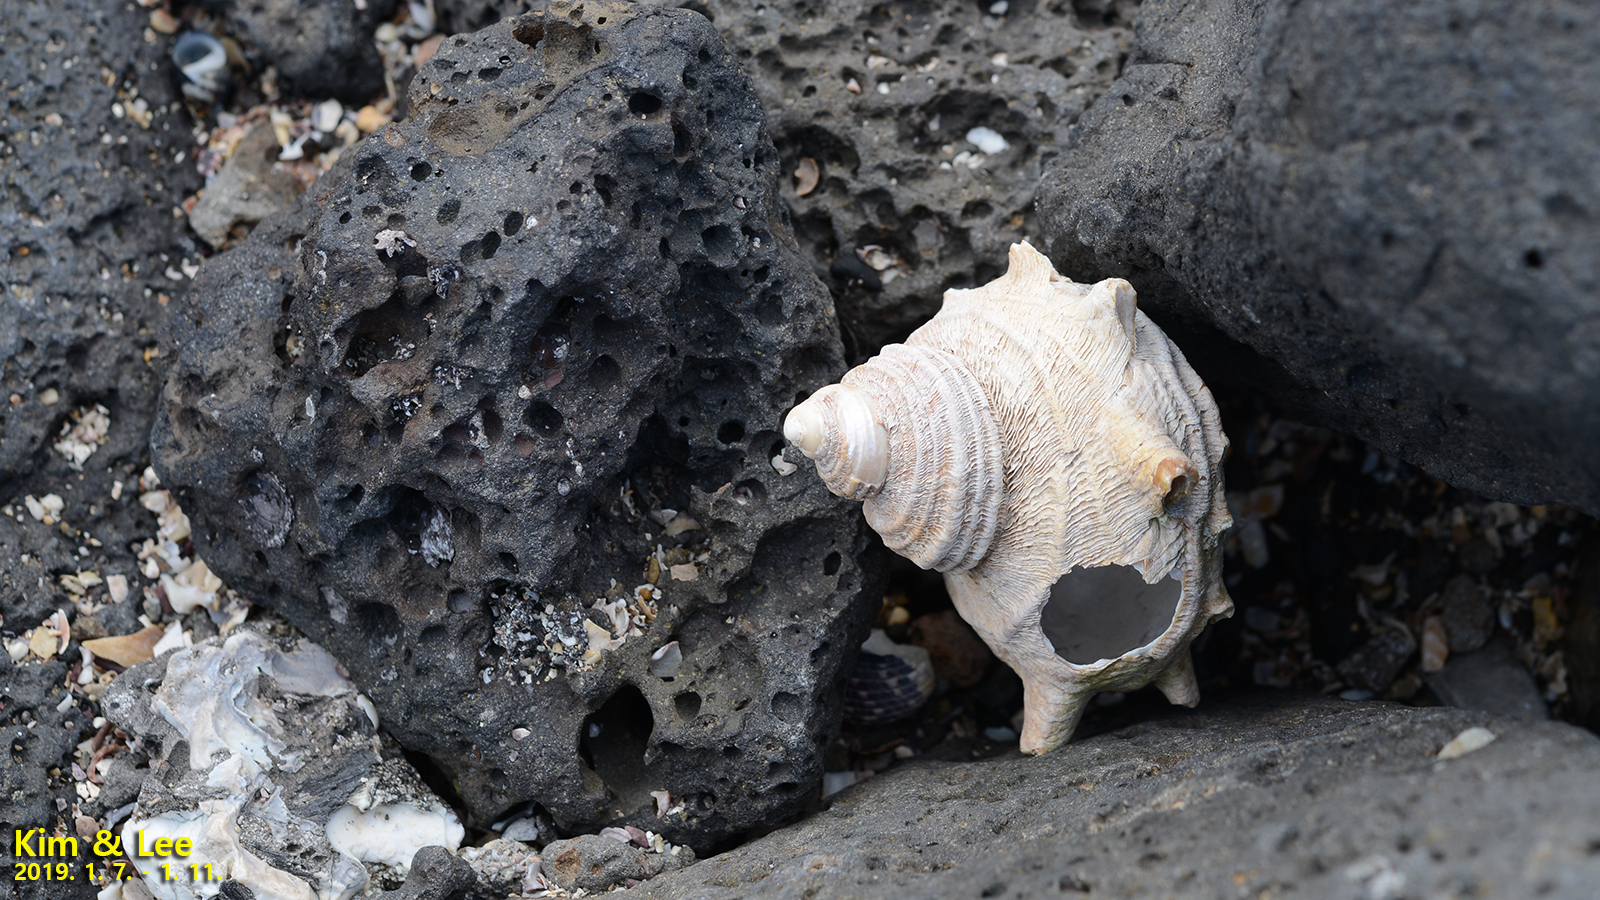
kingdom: Animalia
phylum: Mollusca
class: Gastropoda
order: Trochida
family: Turbinidae
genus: Turbo
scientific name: Turbo sazae
